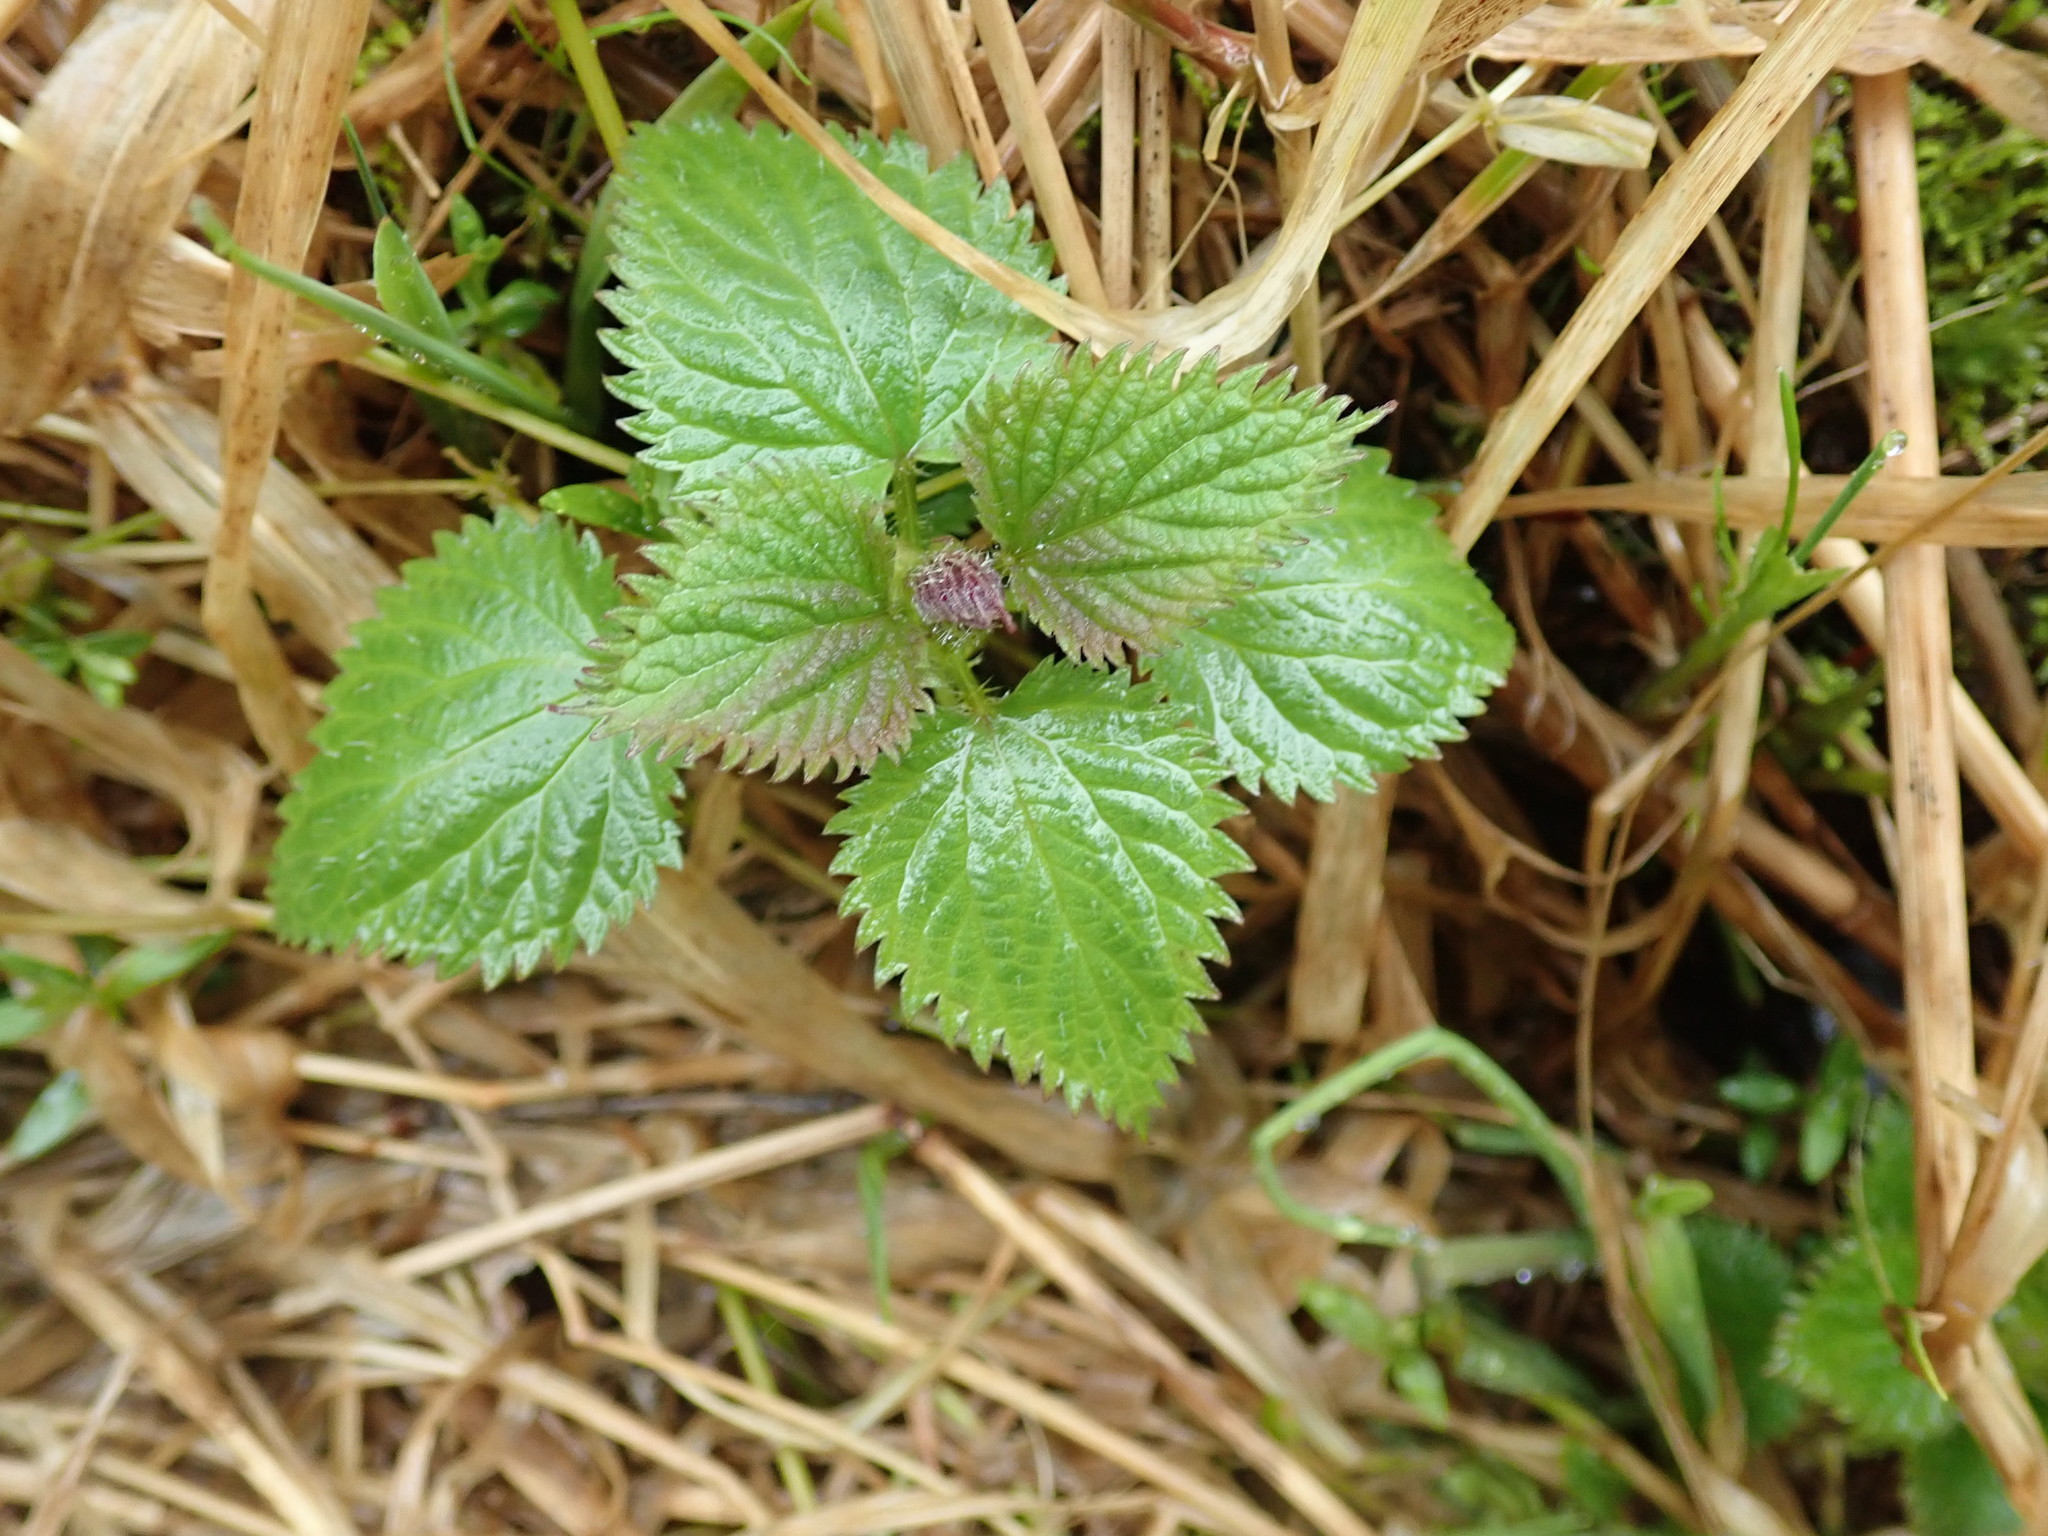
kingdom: Plantae
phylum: Tracheophyta
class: Magnoliopsida
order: Rosales
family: Urticaceae
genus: Urtica
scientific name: Urtica dioica
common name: Common nettle
